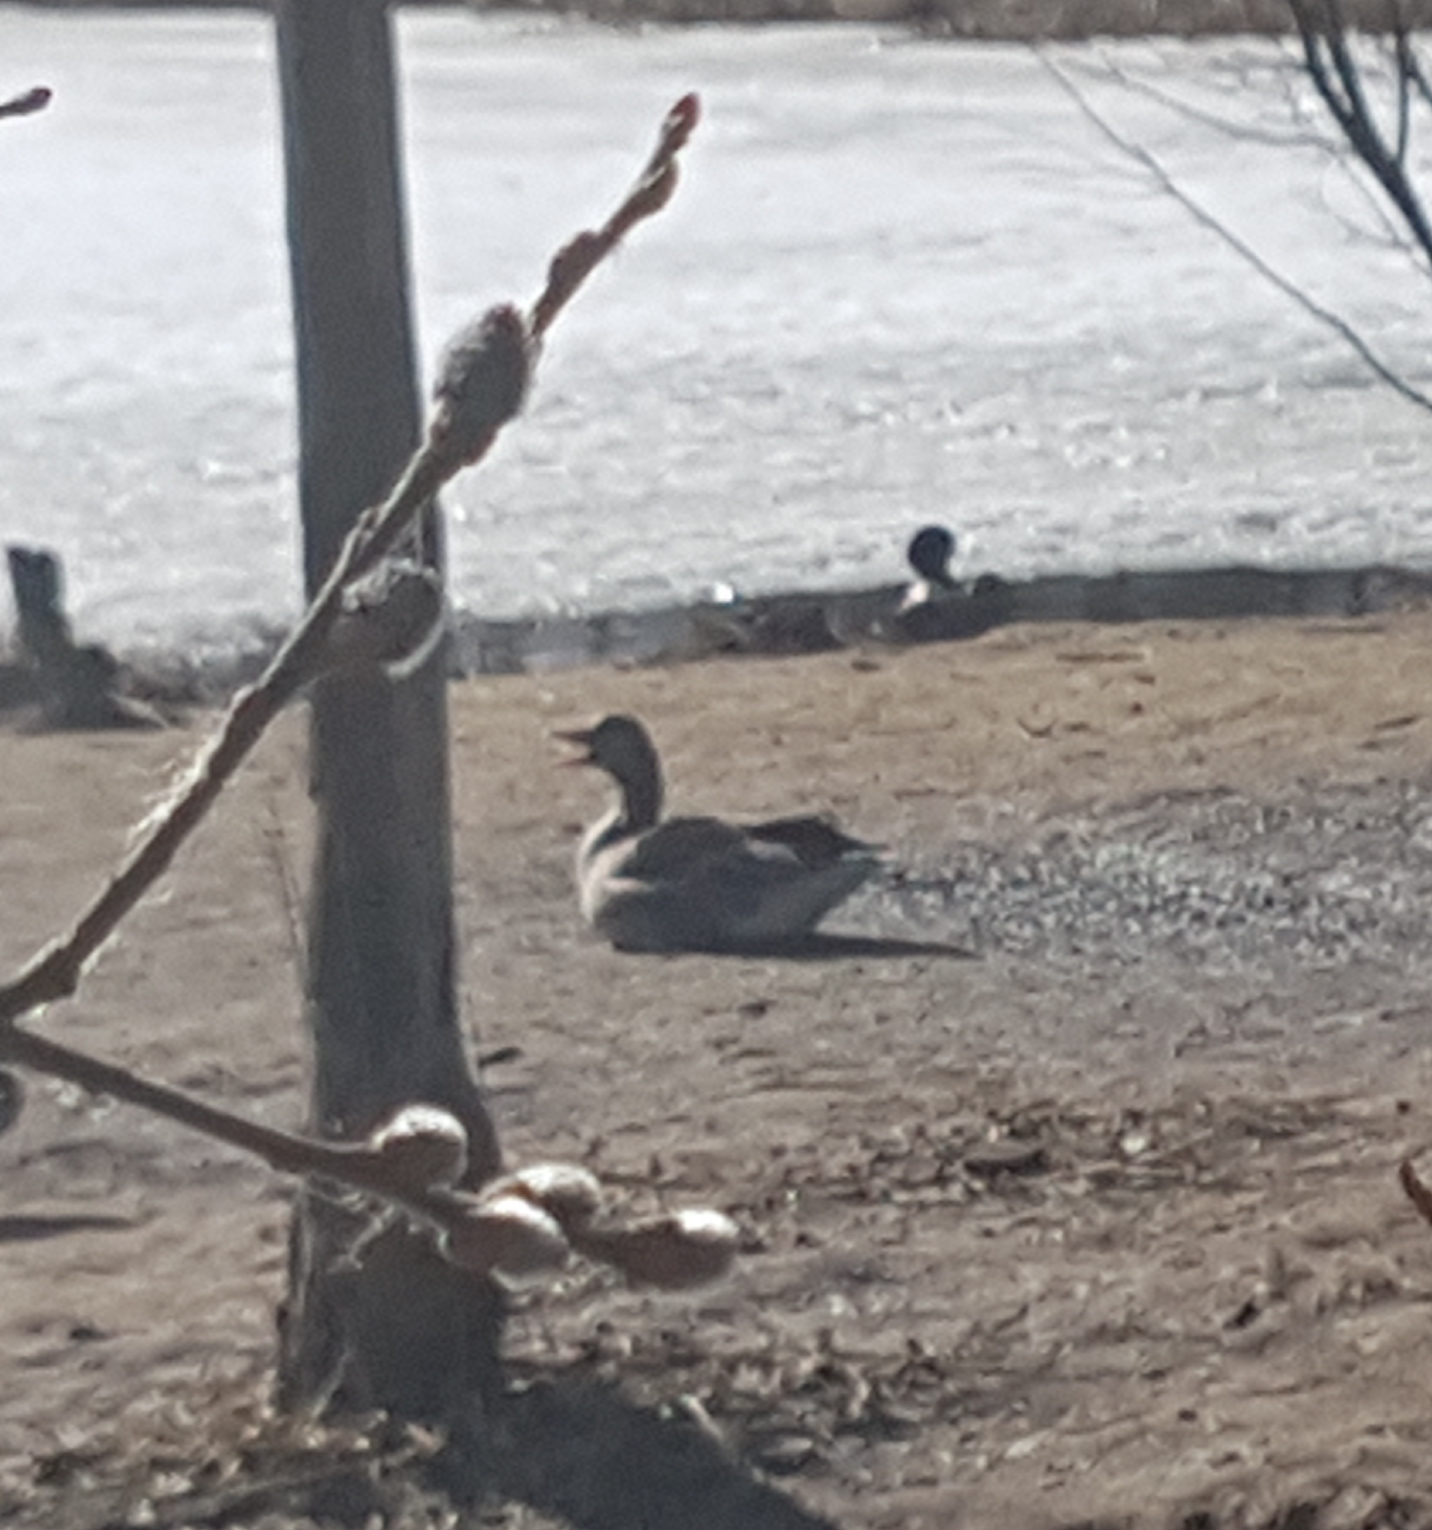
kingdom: Animalia
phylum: Chordata
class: Aves
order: Anseriformes
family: Anatidae
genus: Anser
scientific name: Anser anser
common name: Greylag goose
